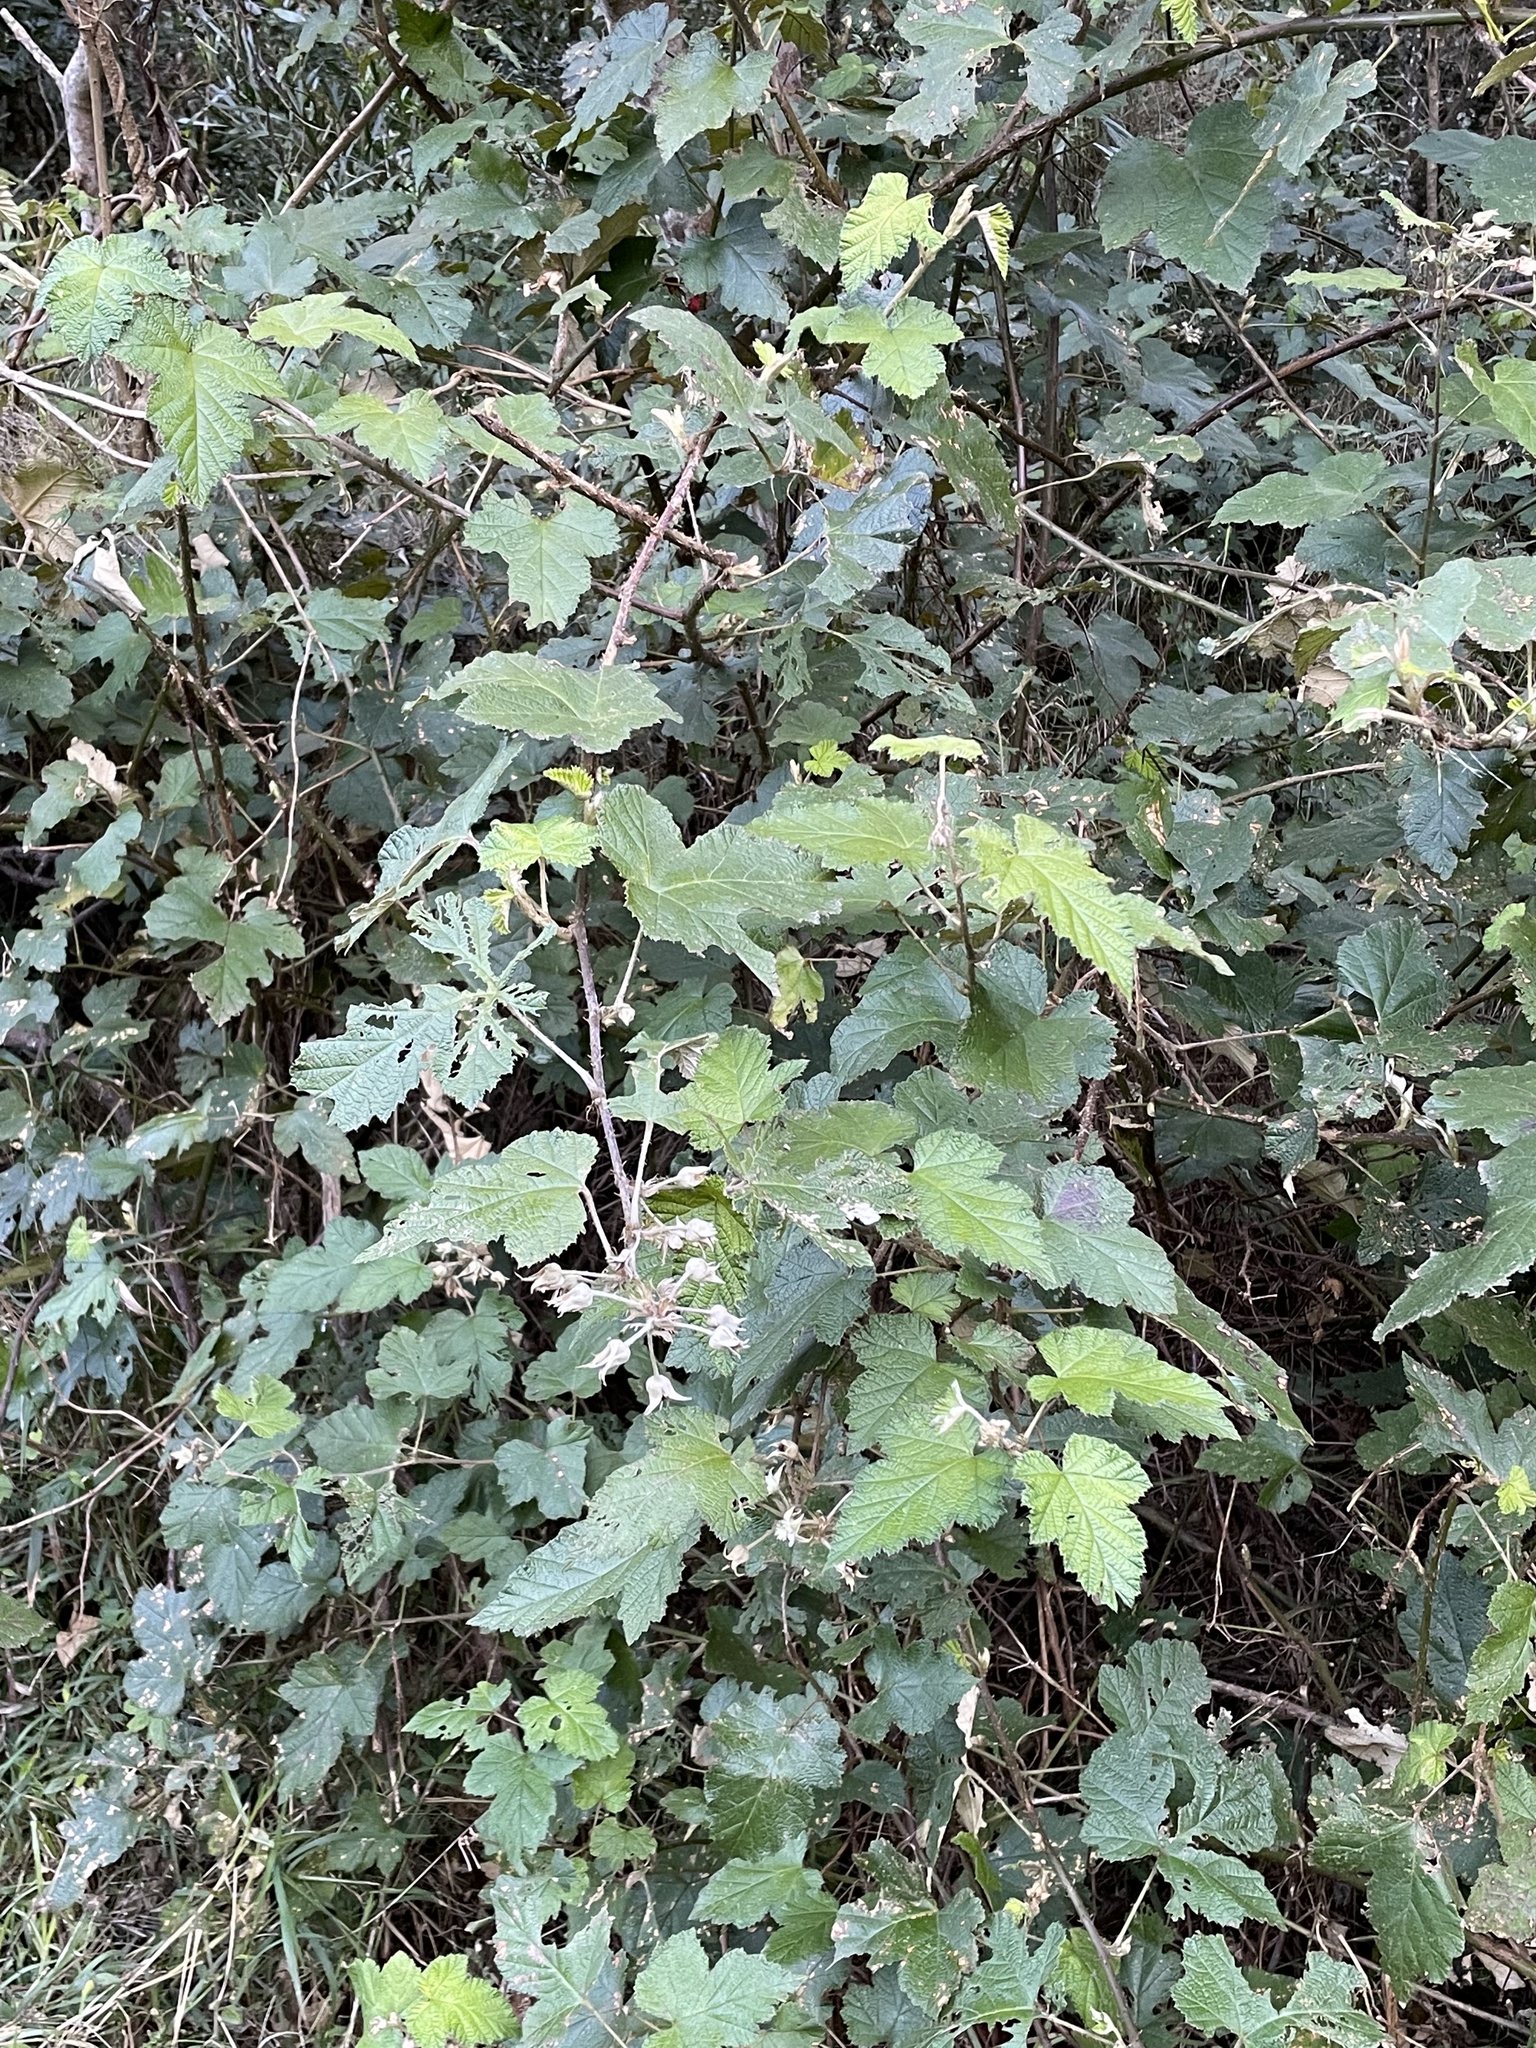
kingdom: Plantae
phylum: Tracheophyta
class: Magnoliopsida
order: Rosales
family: Rosaceae
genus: Rubus
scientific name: Rubus moluccanus
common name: Wild raspberry
